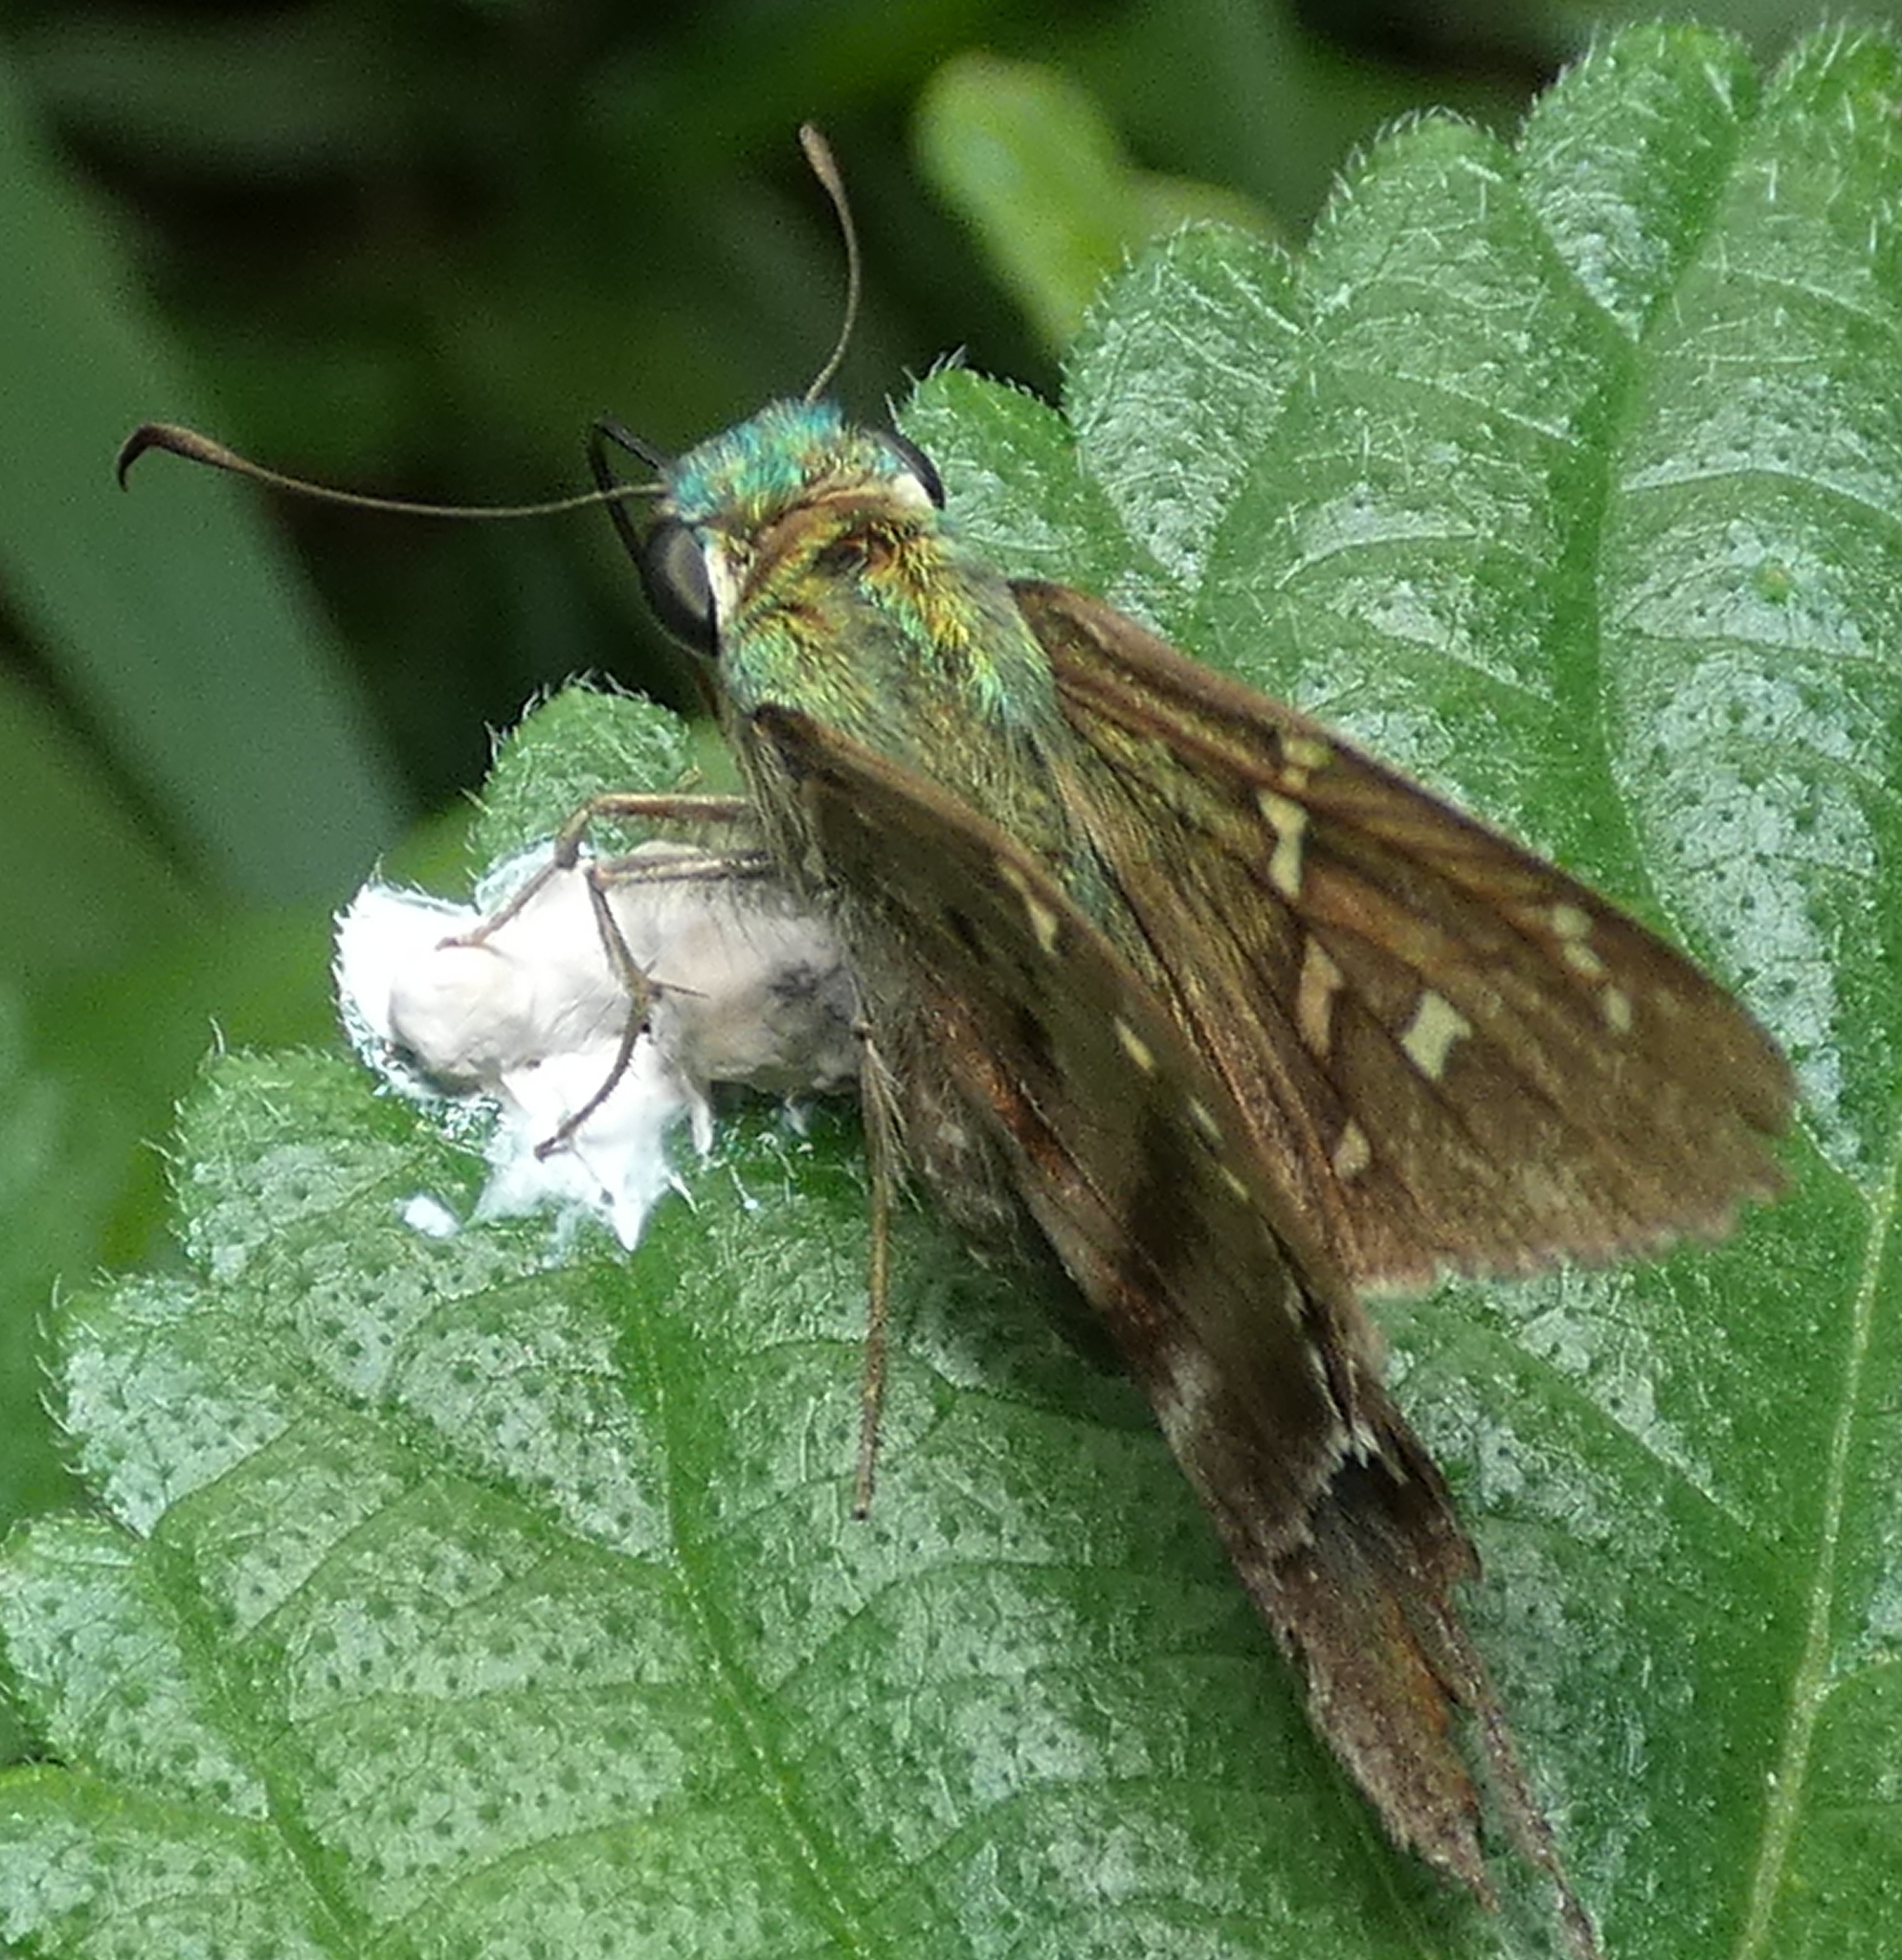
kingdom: Animalia
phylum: Arthropoda
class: Insecta
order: Lepidoptera
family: Hesperiidae
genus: Urbanus
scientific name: Urbanus proteus
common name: Long-tailed skipper
